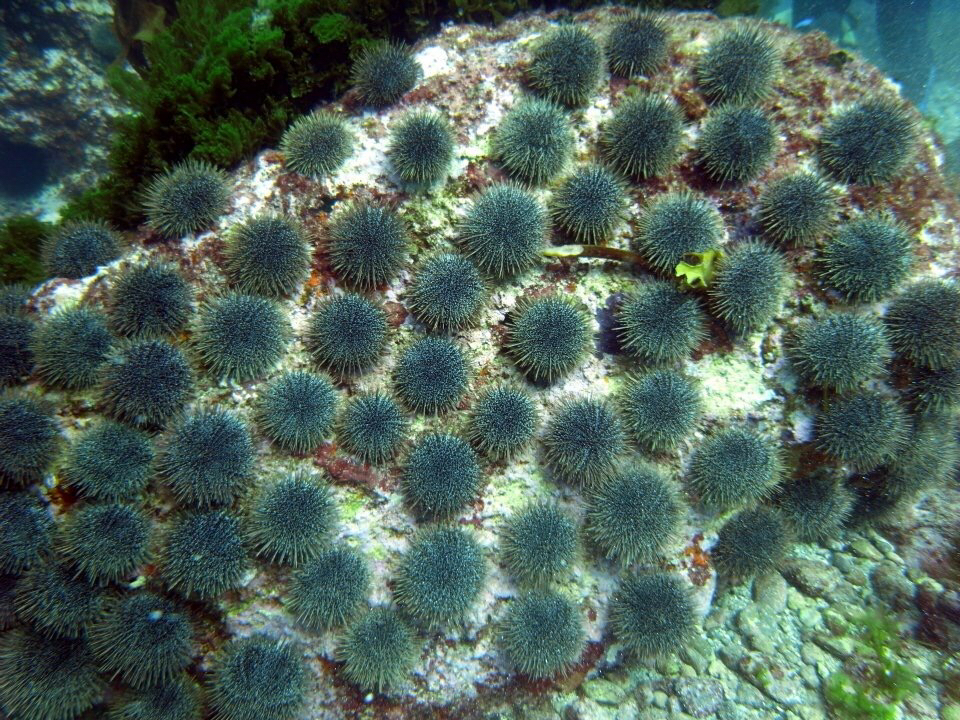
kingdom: Animalia
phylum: Echinodermata
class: Echinoidea
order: Camarodonta
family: Echinometridae
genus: Evechinus
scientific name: Evechinus chloroticus
